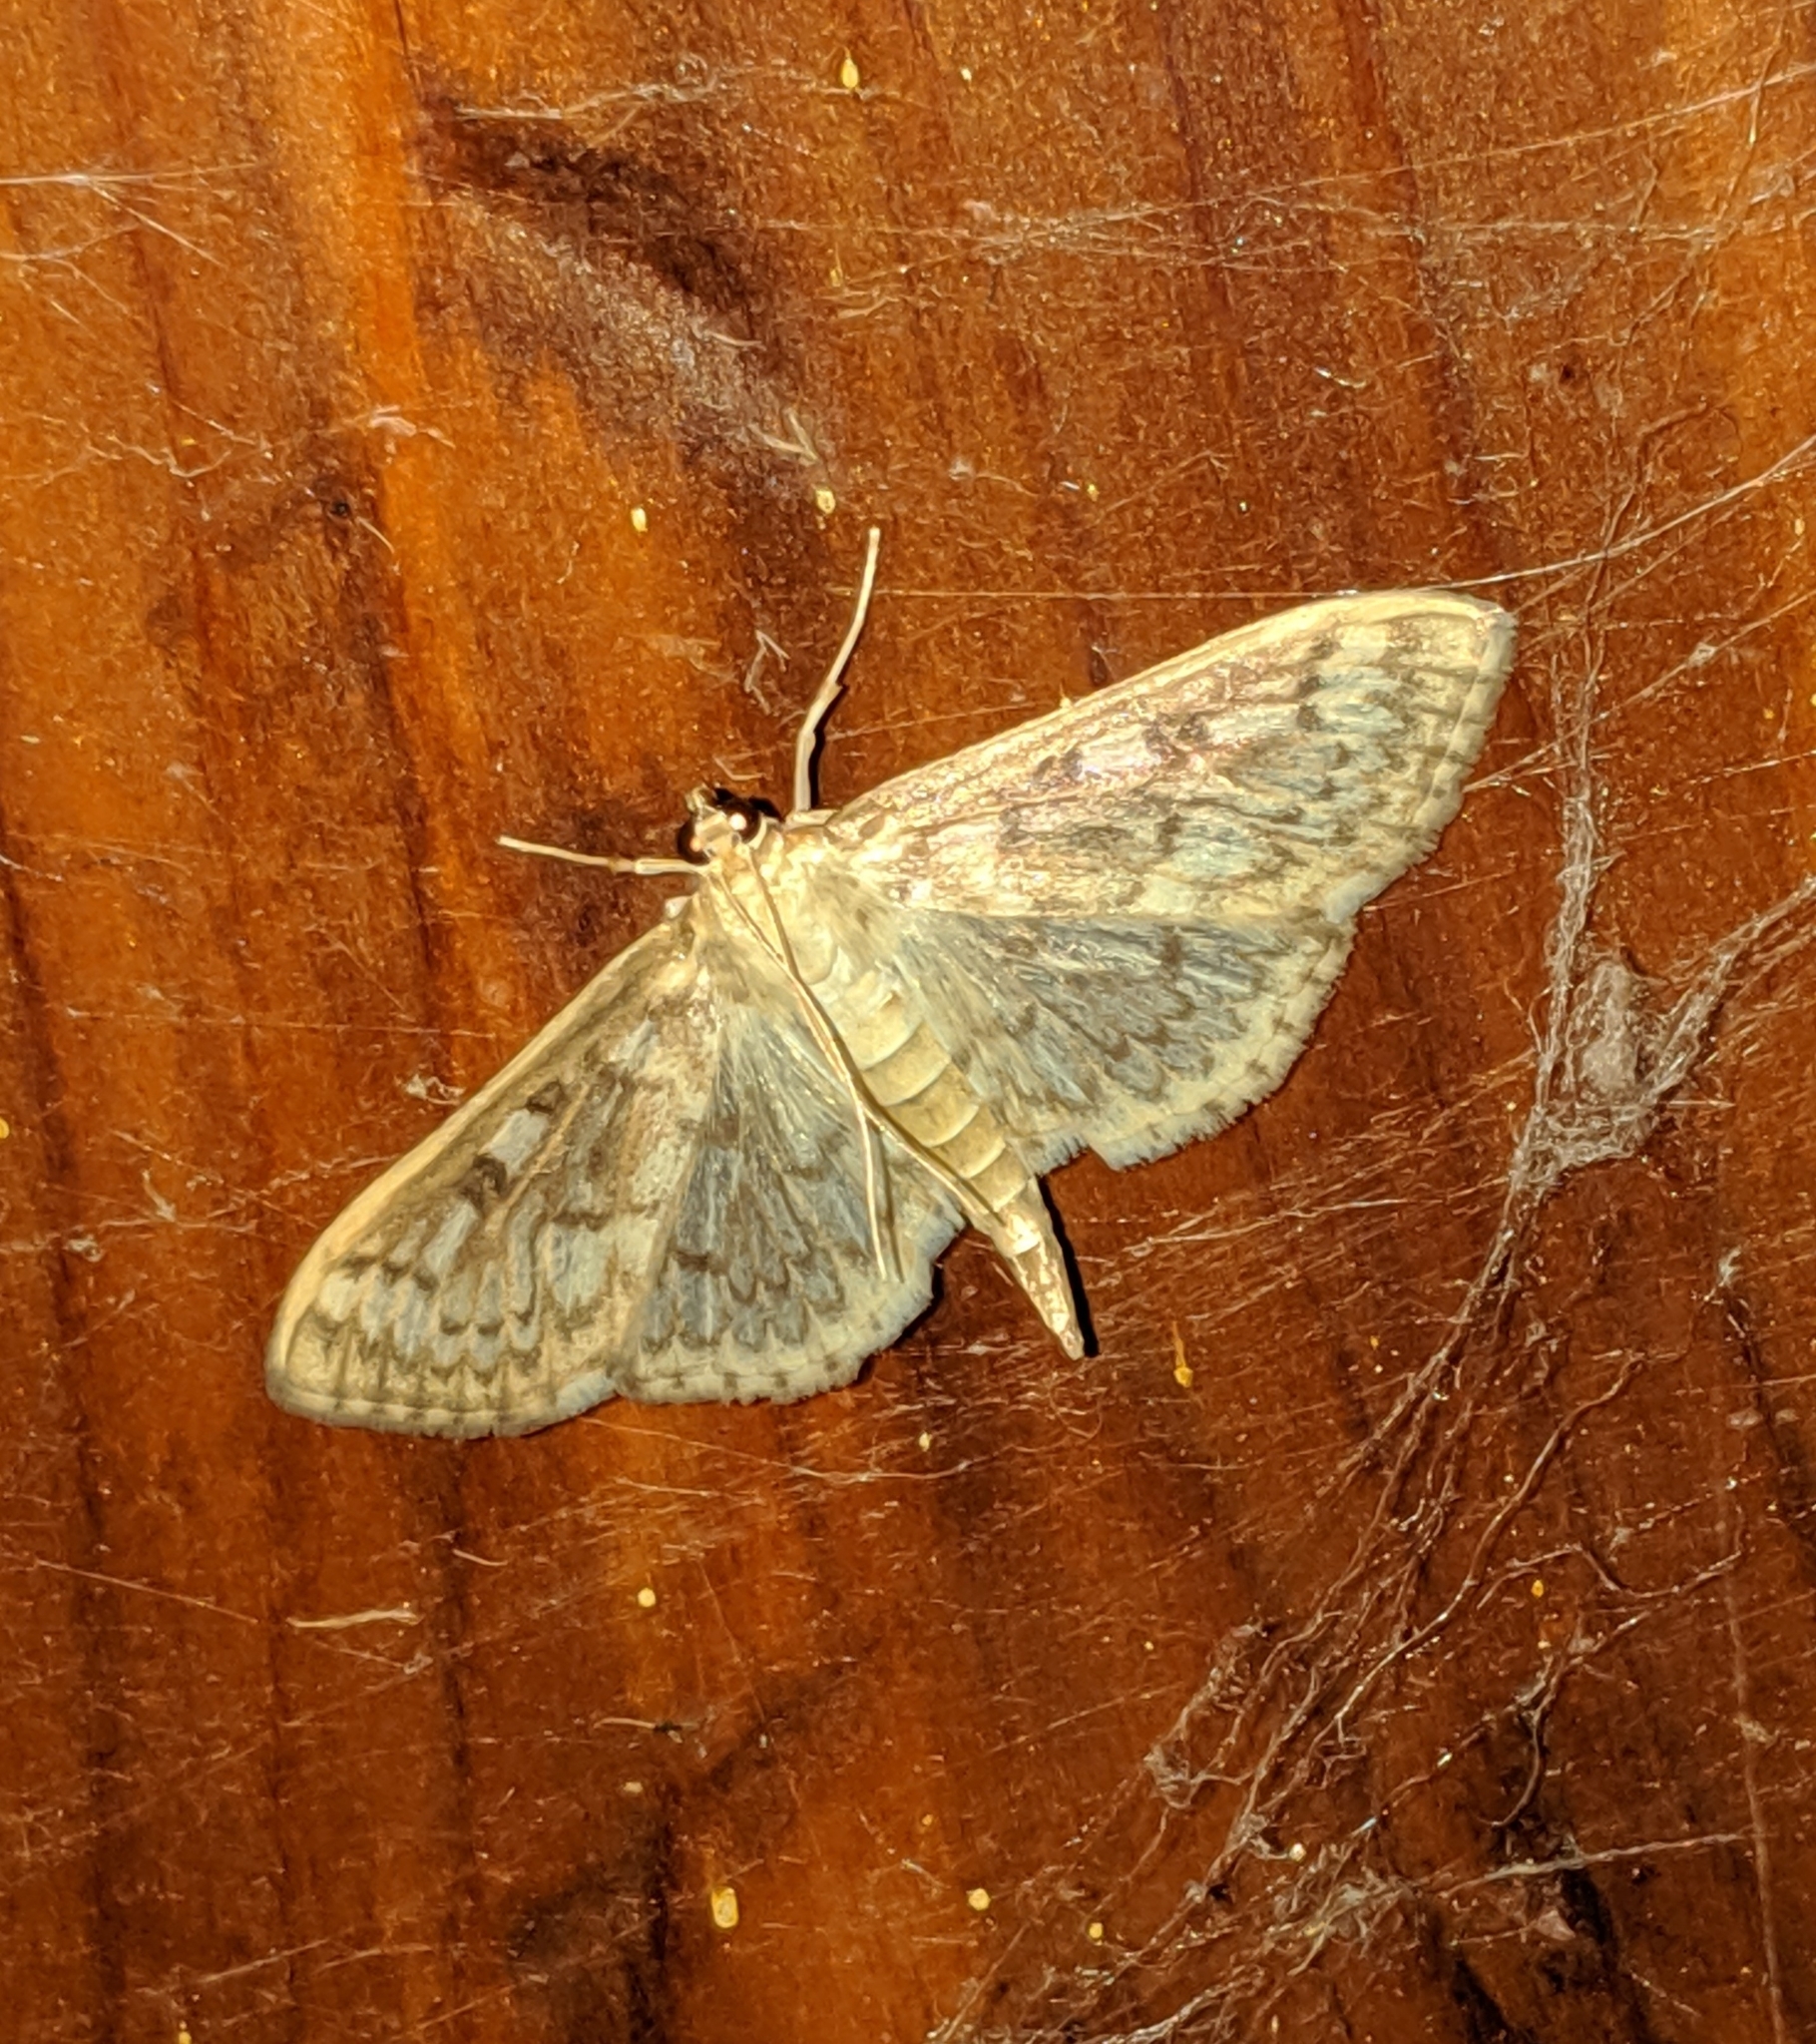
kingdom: Animalia
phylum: Arthropoda
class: Insecta
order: Lepidoptera
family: Crambidae
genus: Herpetogramma
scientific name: Herpetogramma aquilonalis
